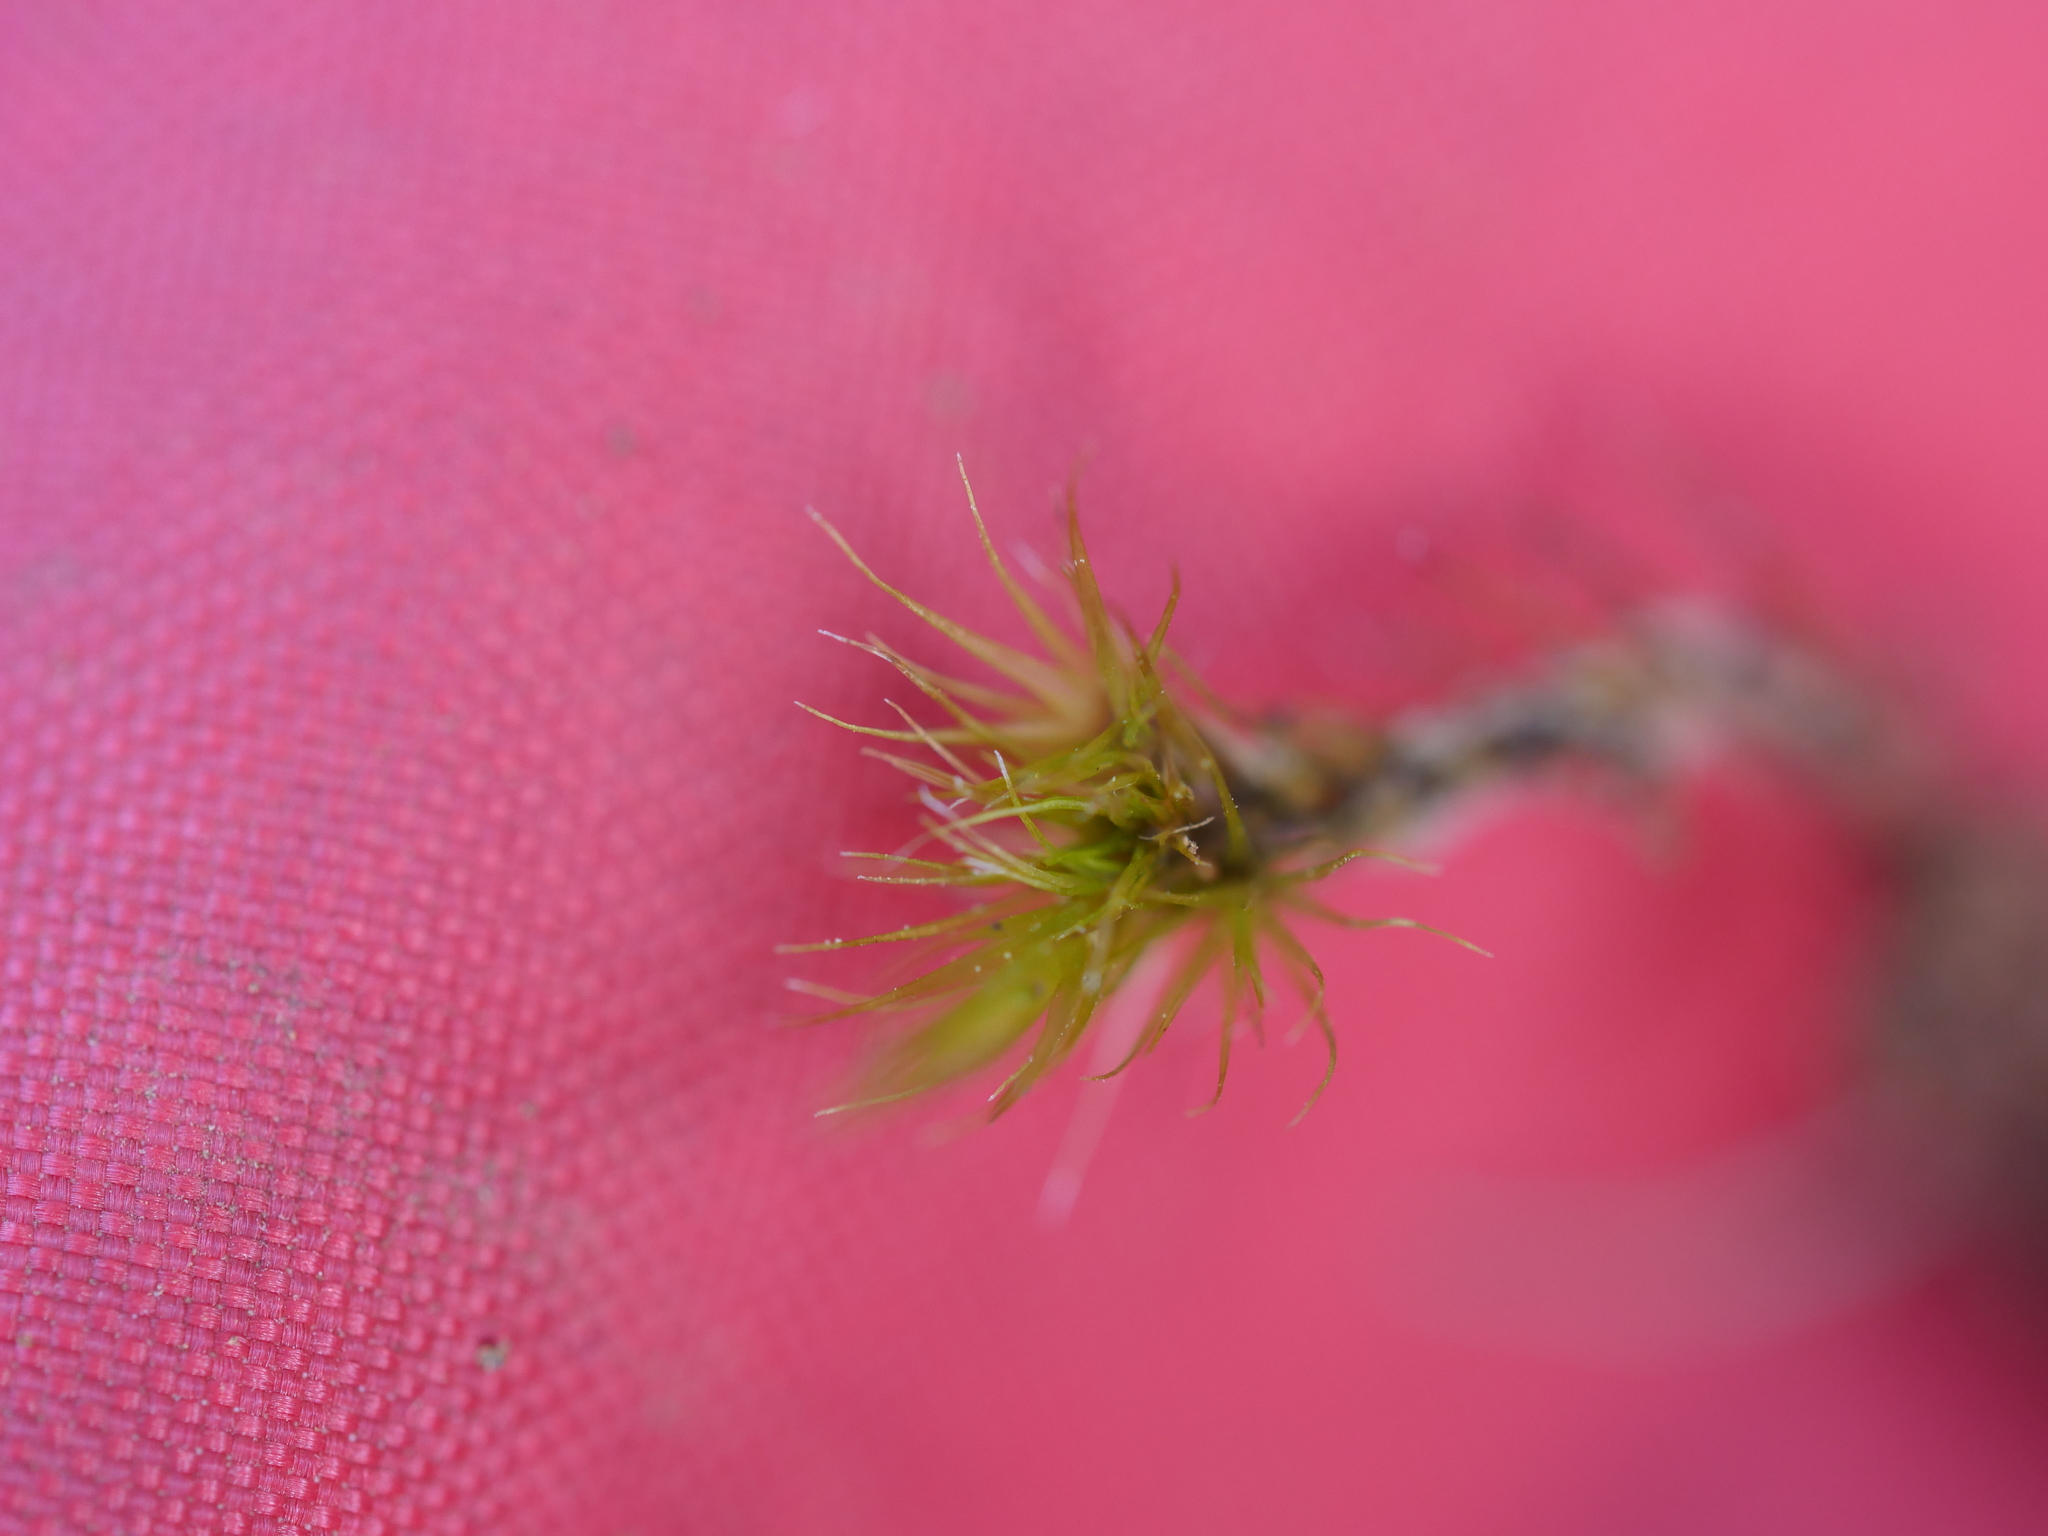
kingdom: Plantae
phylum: Bryophyta
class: Bryopsida
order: Dicranales
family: Leucobryaceae
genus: Campylopus
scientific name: Campylopus clavatus
